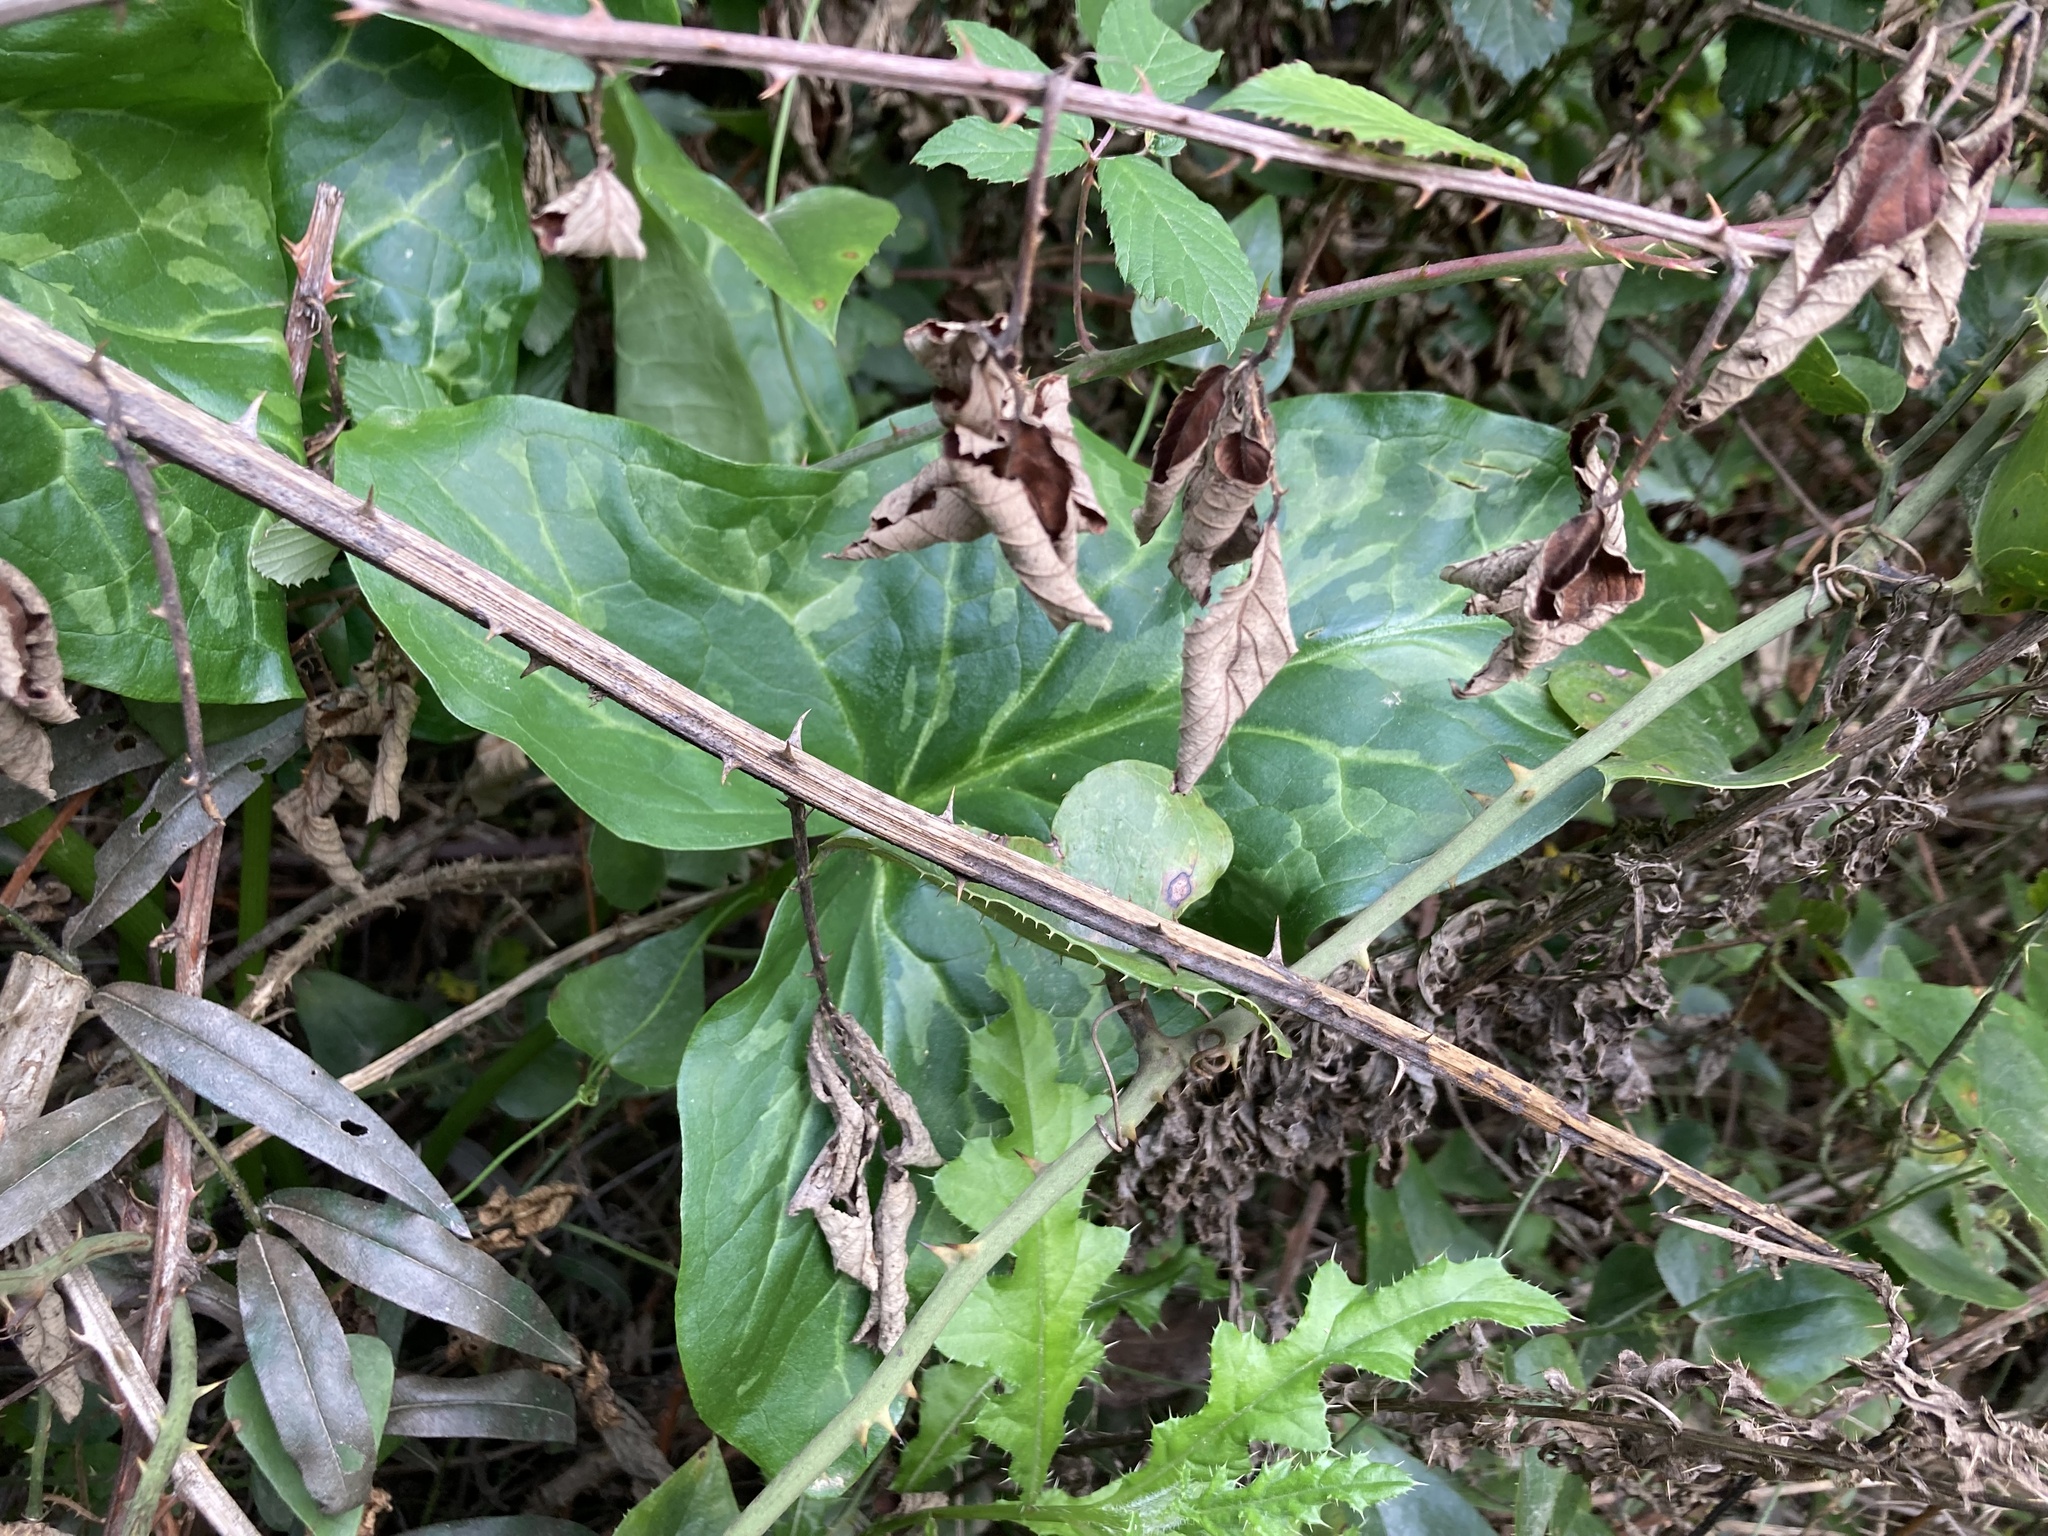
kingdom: Plantae
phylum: Tracheophyta
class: Liliopsida
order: Alismatales
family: Araceae
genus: Arum
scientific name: Arum italicum
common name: Italian lords-and-ladies
